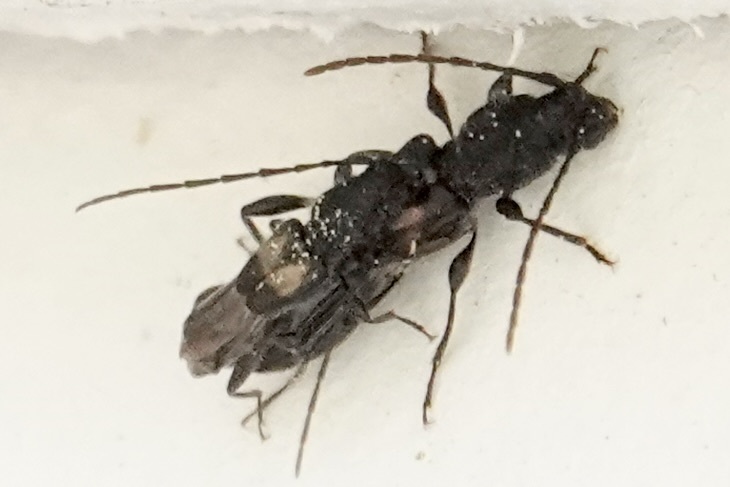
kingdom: Animalia
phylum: Arthropoda
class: Insecta
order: Coleoptera
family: Cerambycidae
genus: Molorchus
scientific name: Molorchus bimaculatus
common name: Bimaculate longhorn beetle
